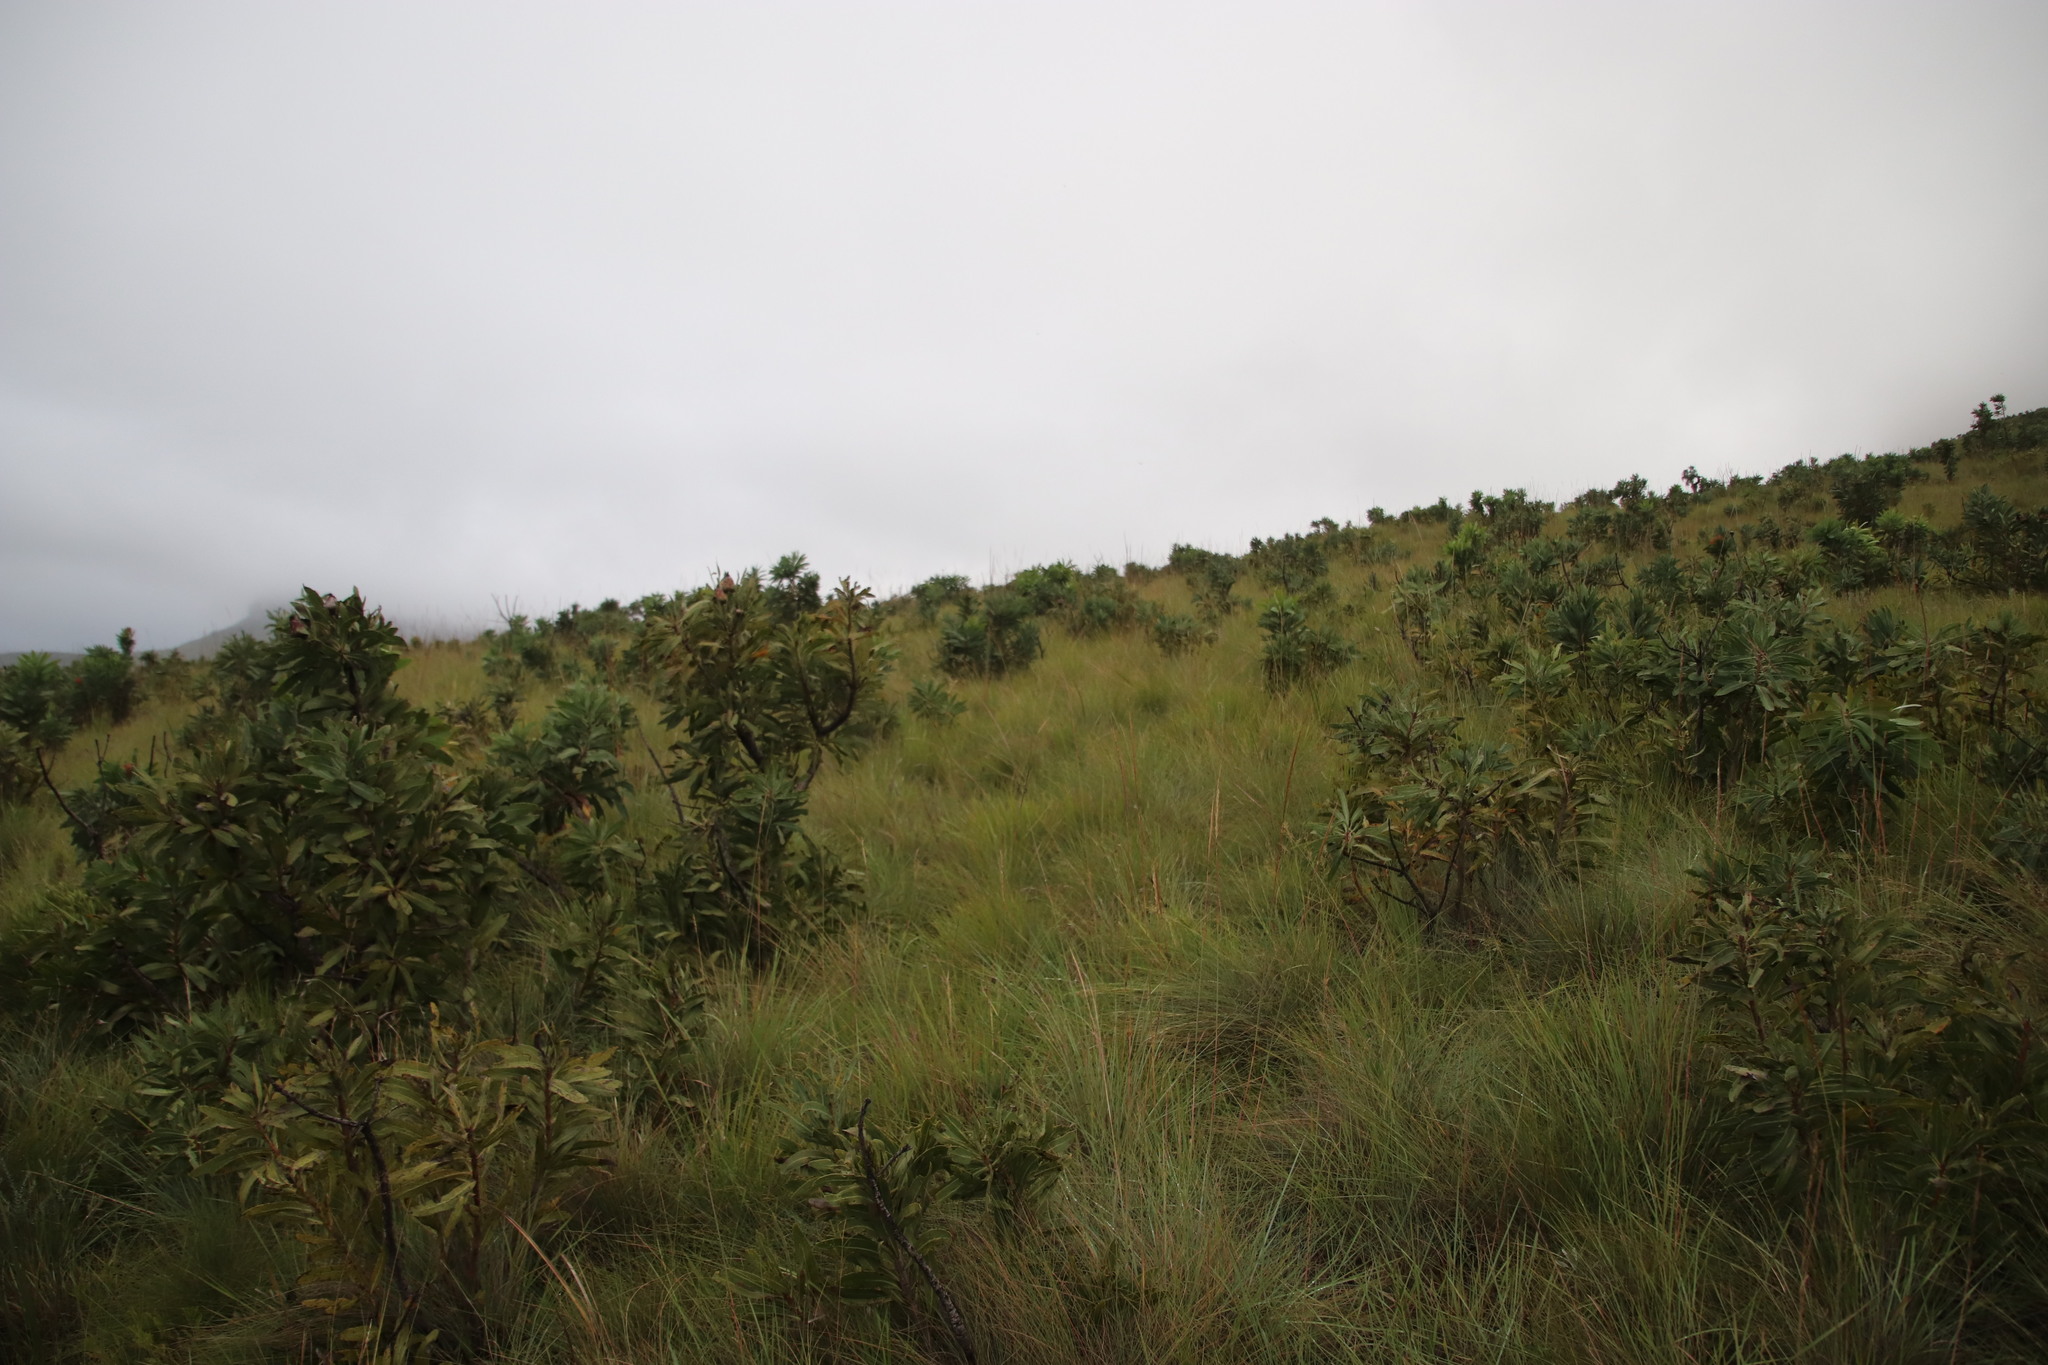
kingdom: Plantae
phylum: Tracheophyta
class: Magnoliopsida
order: Proteales
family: Proteaceae
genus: Protea
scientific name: Protea caffra
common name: Common sugarbush
